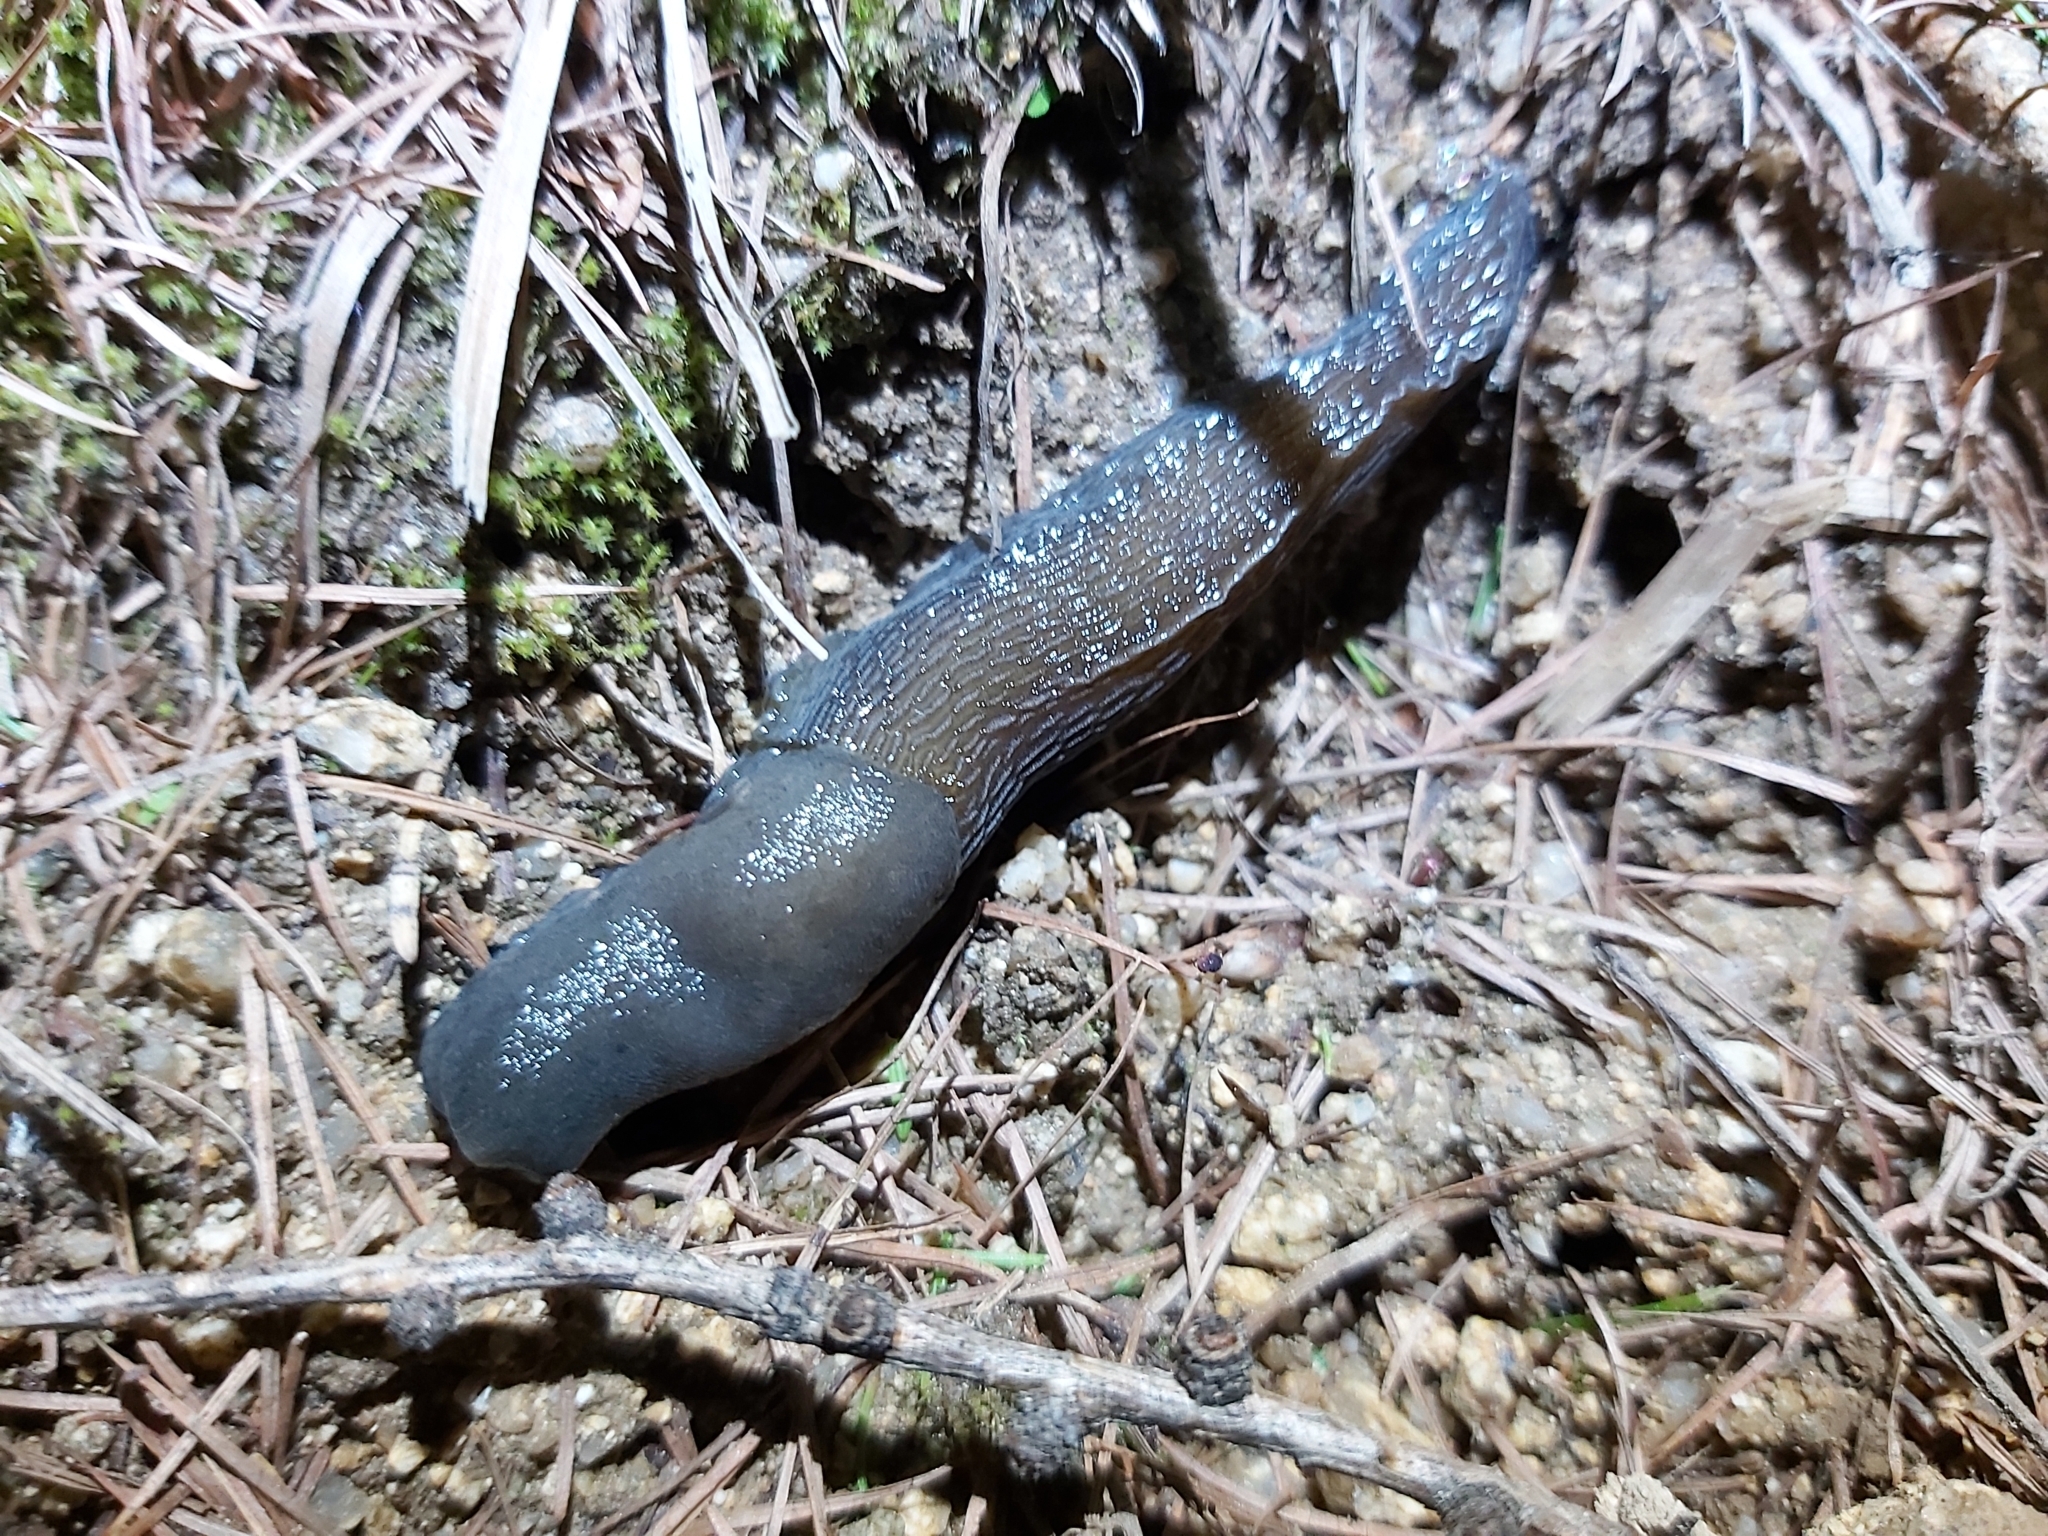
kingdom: Animalia
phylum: Mollusca
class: Gastropoda
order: Stylommatophora
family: Limacidae
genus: Bielzia
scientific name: Bielzia coerulans
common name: Carpathian blue slug
